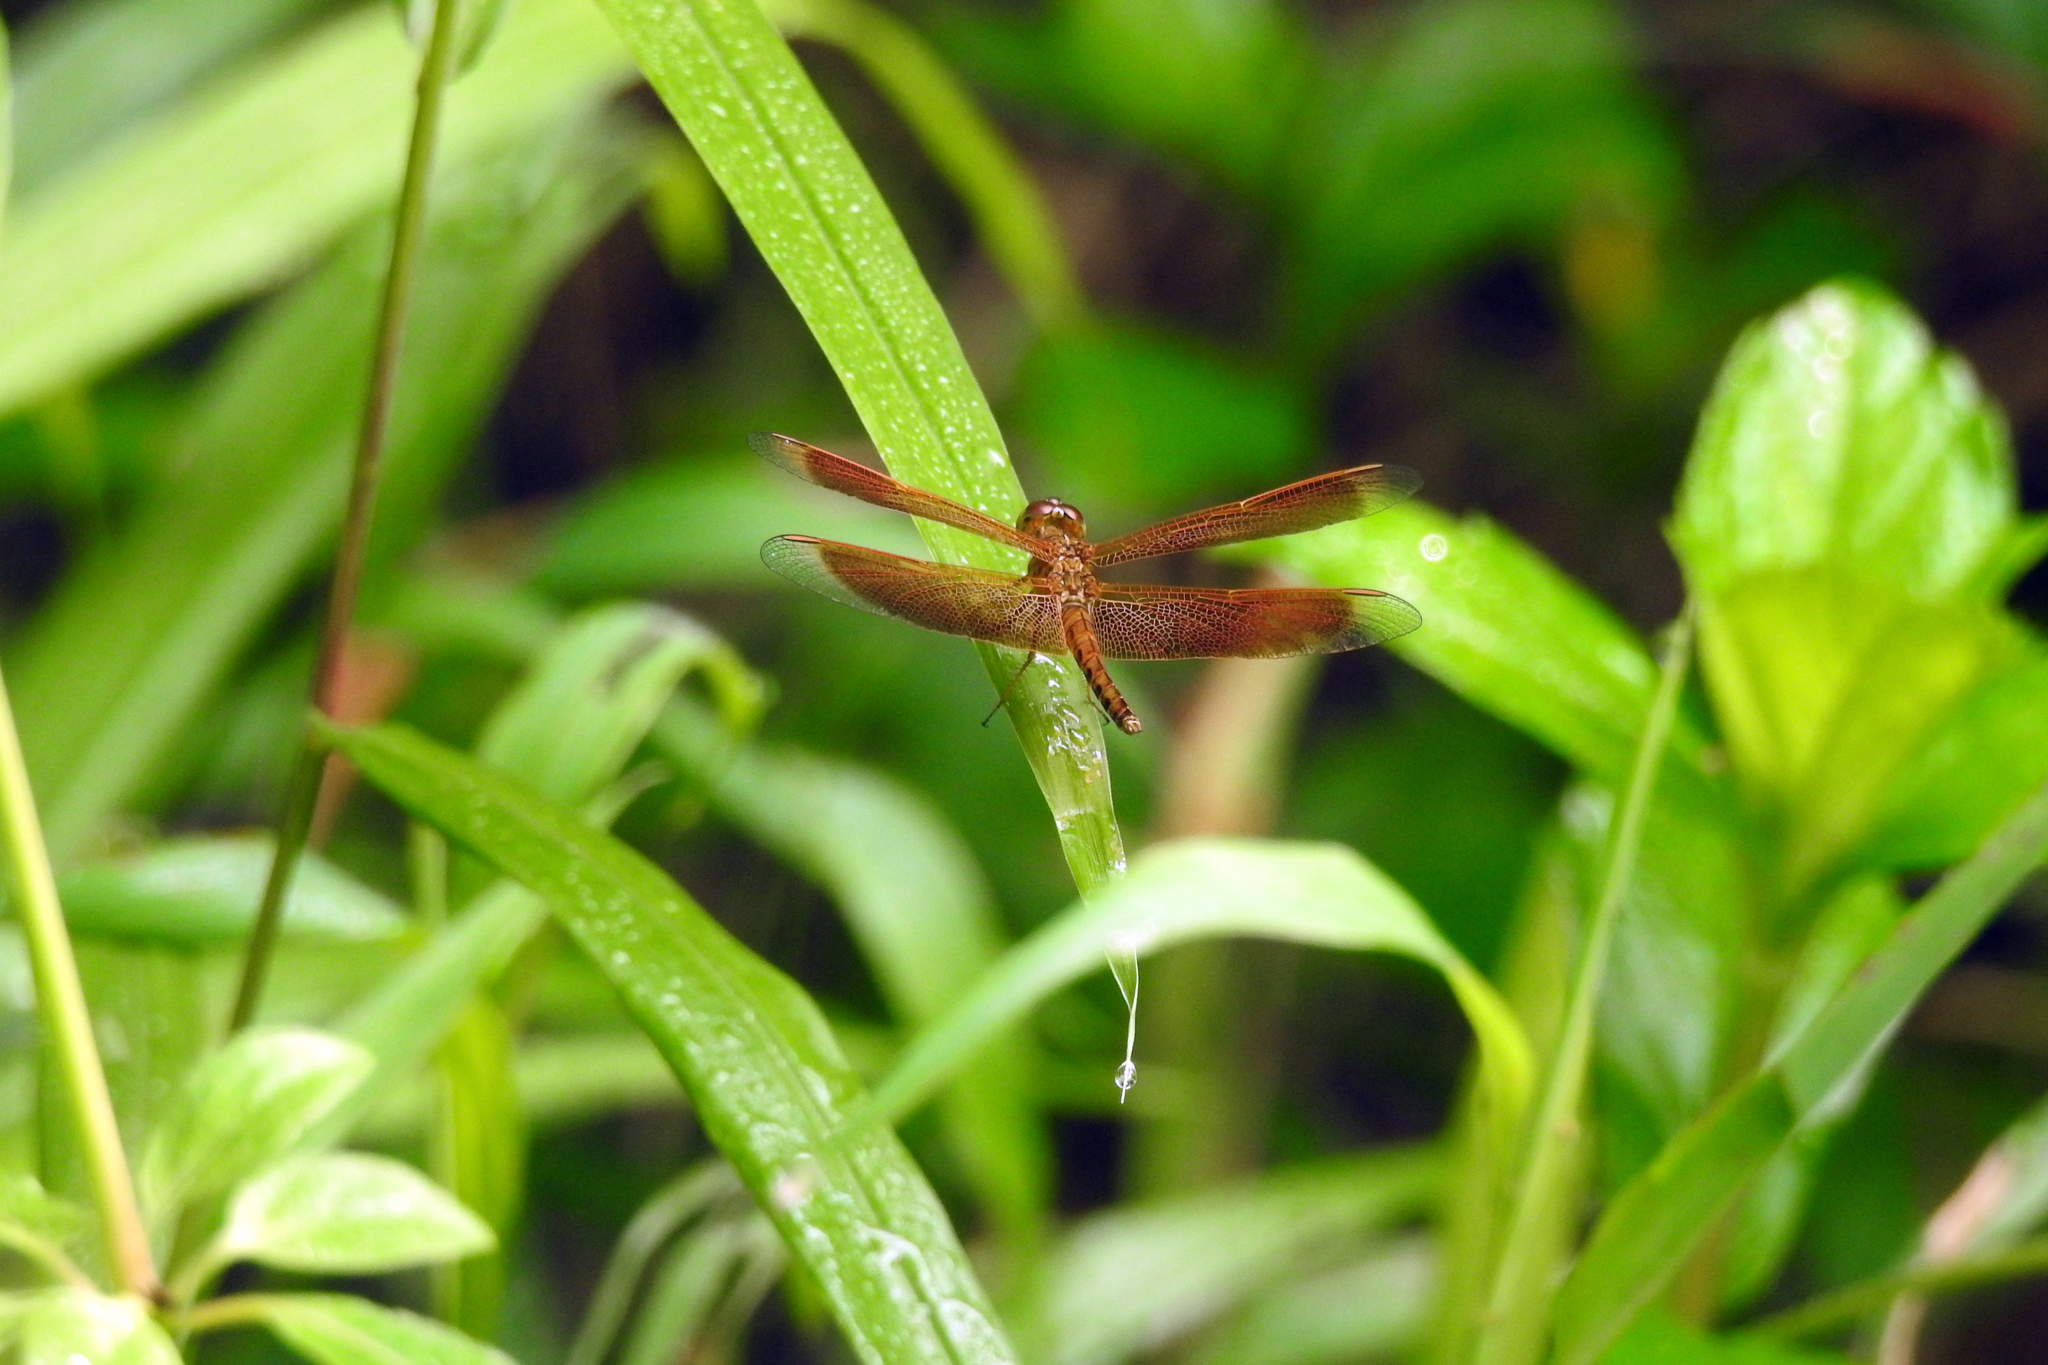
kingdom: Animalia
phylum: Arthropoda
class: Insecta
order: Odonata
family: Libellulidae
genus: Neurothemis
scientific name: Neurothemis fluctuans
